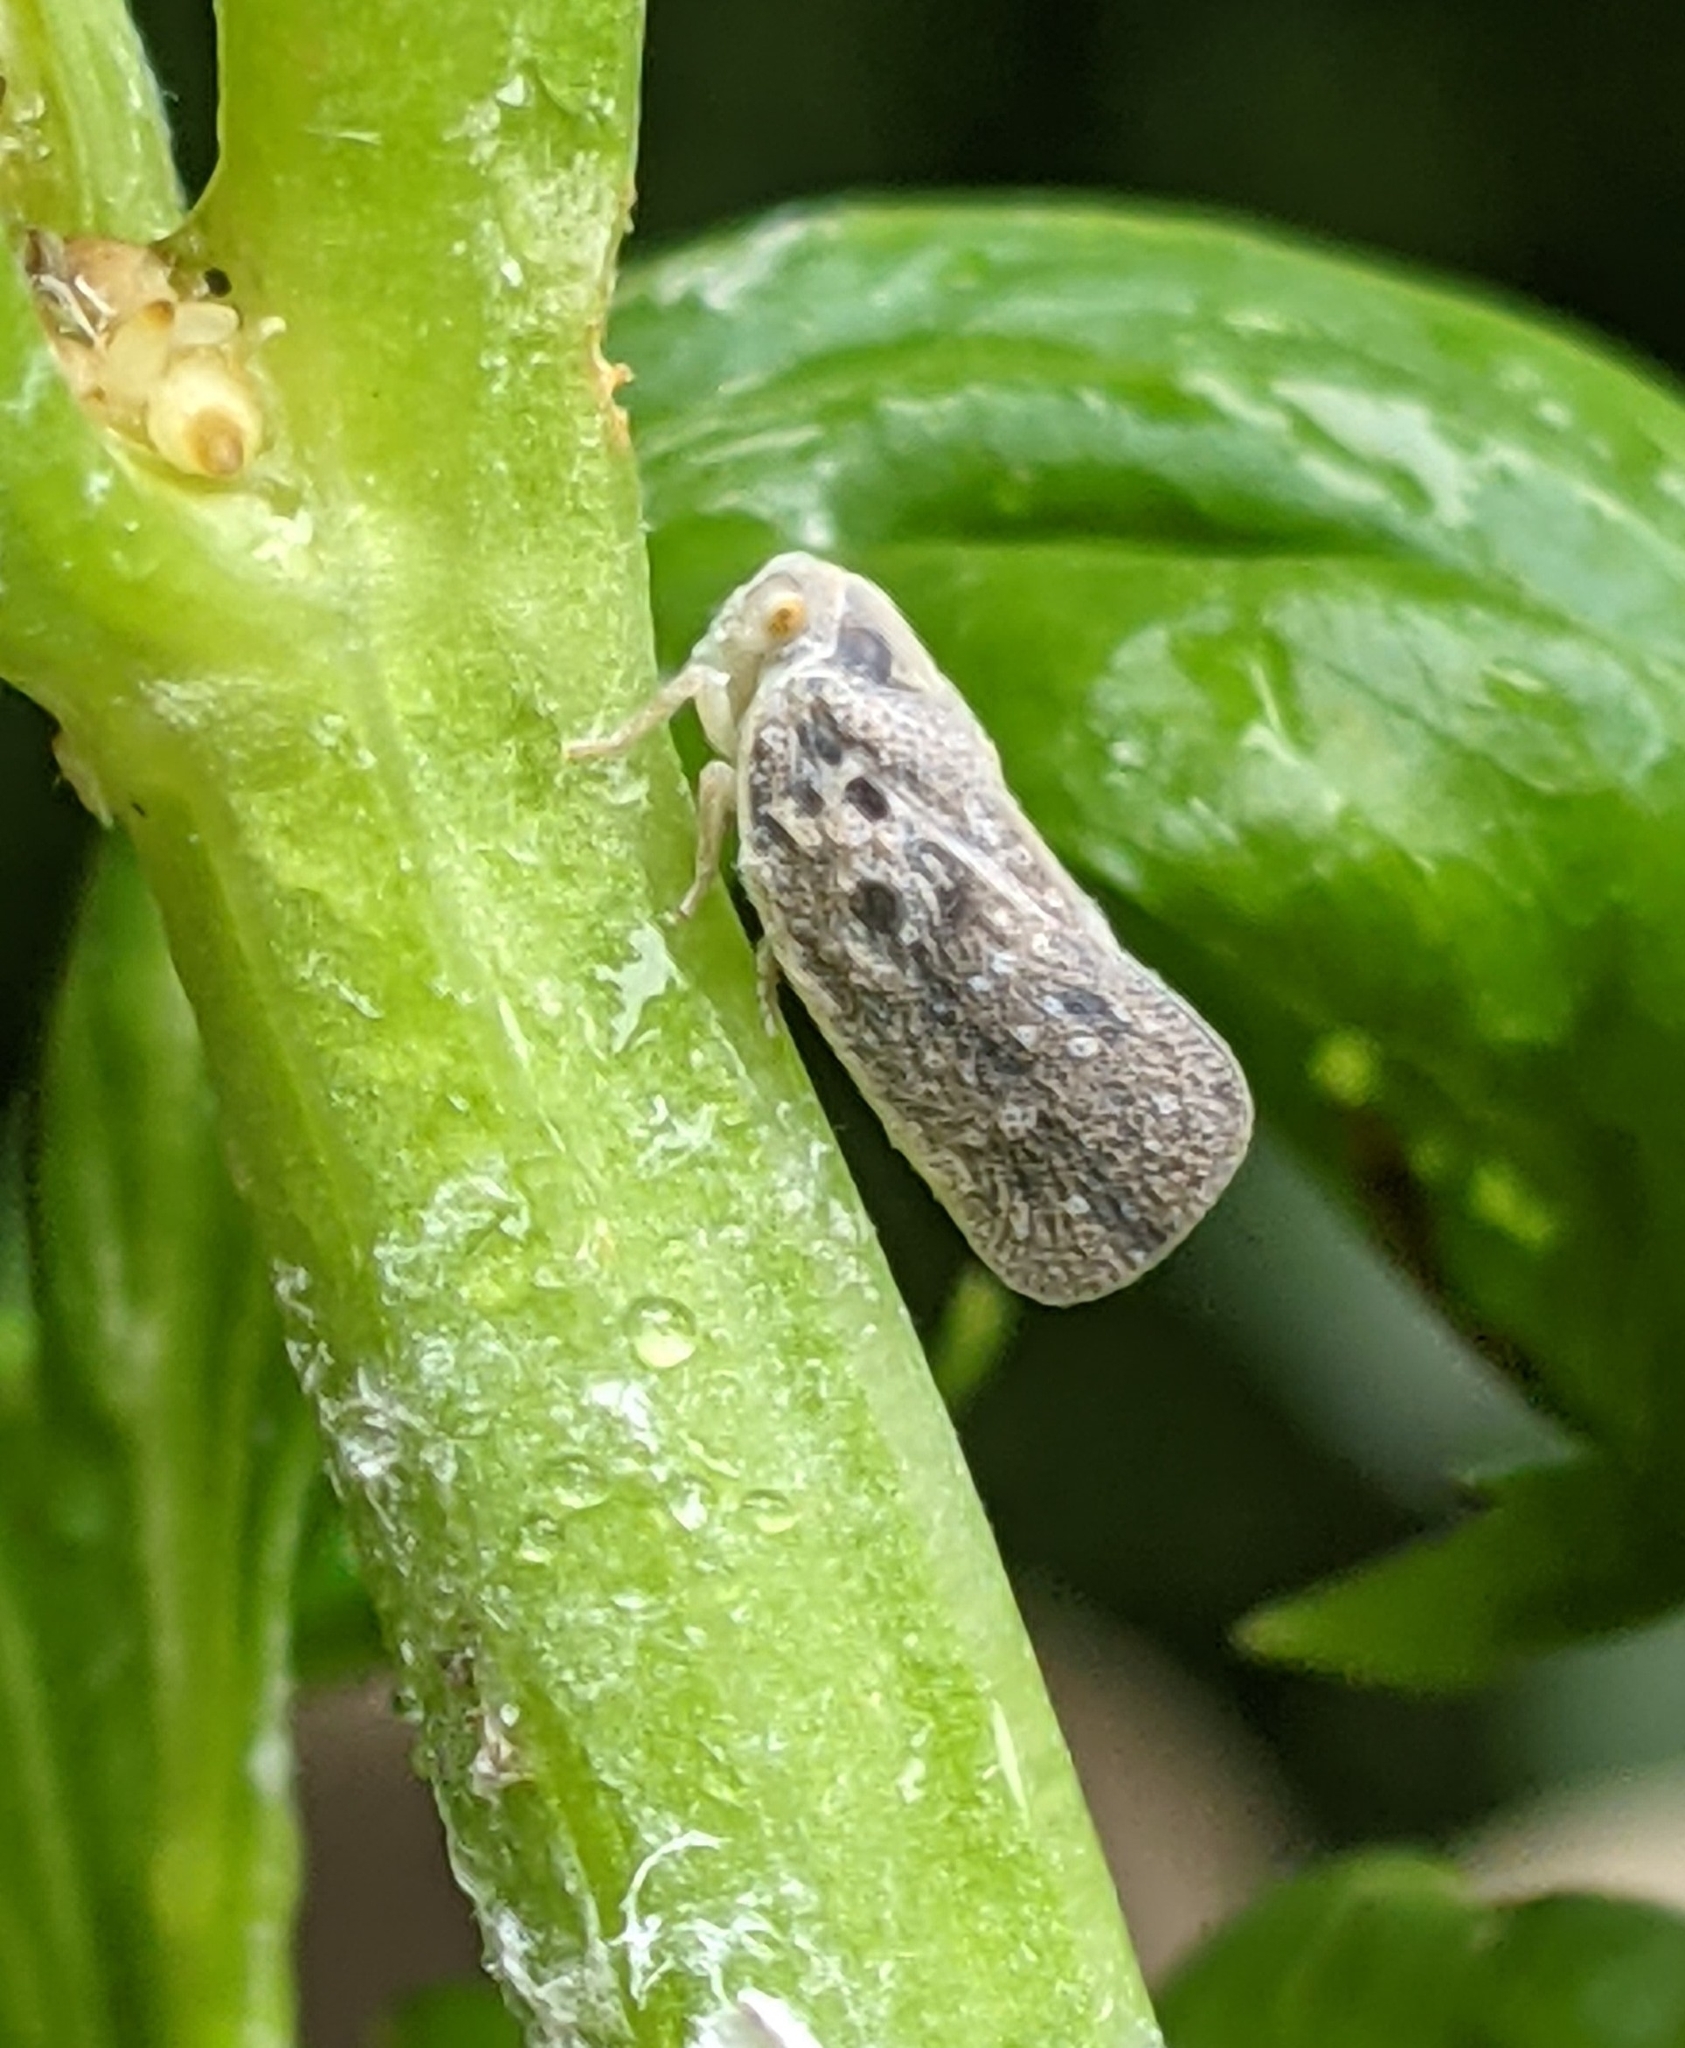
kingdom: Animalia
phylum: Arthropoda
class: Insecta
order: Hemiptera
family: Flatidae
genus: Metcalfa
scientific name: Metcalfa pruinosa
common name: Citrus flatid planthopper
